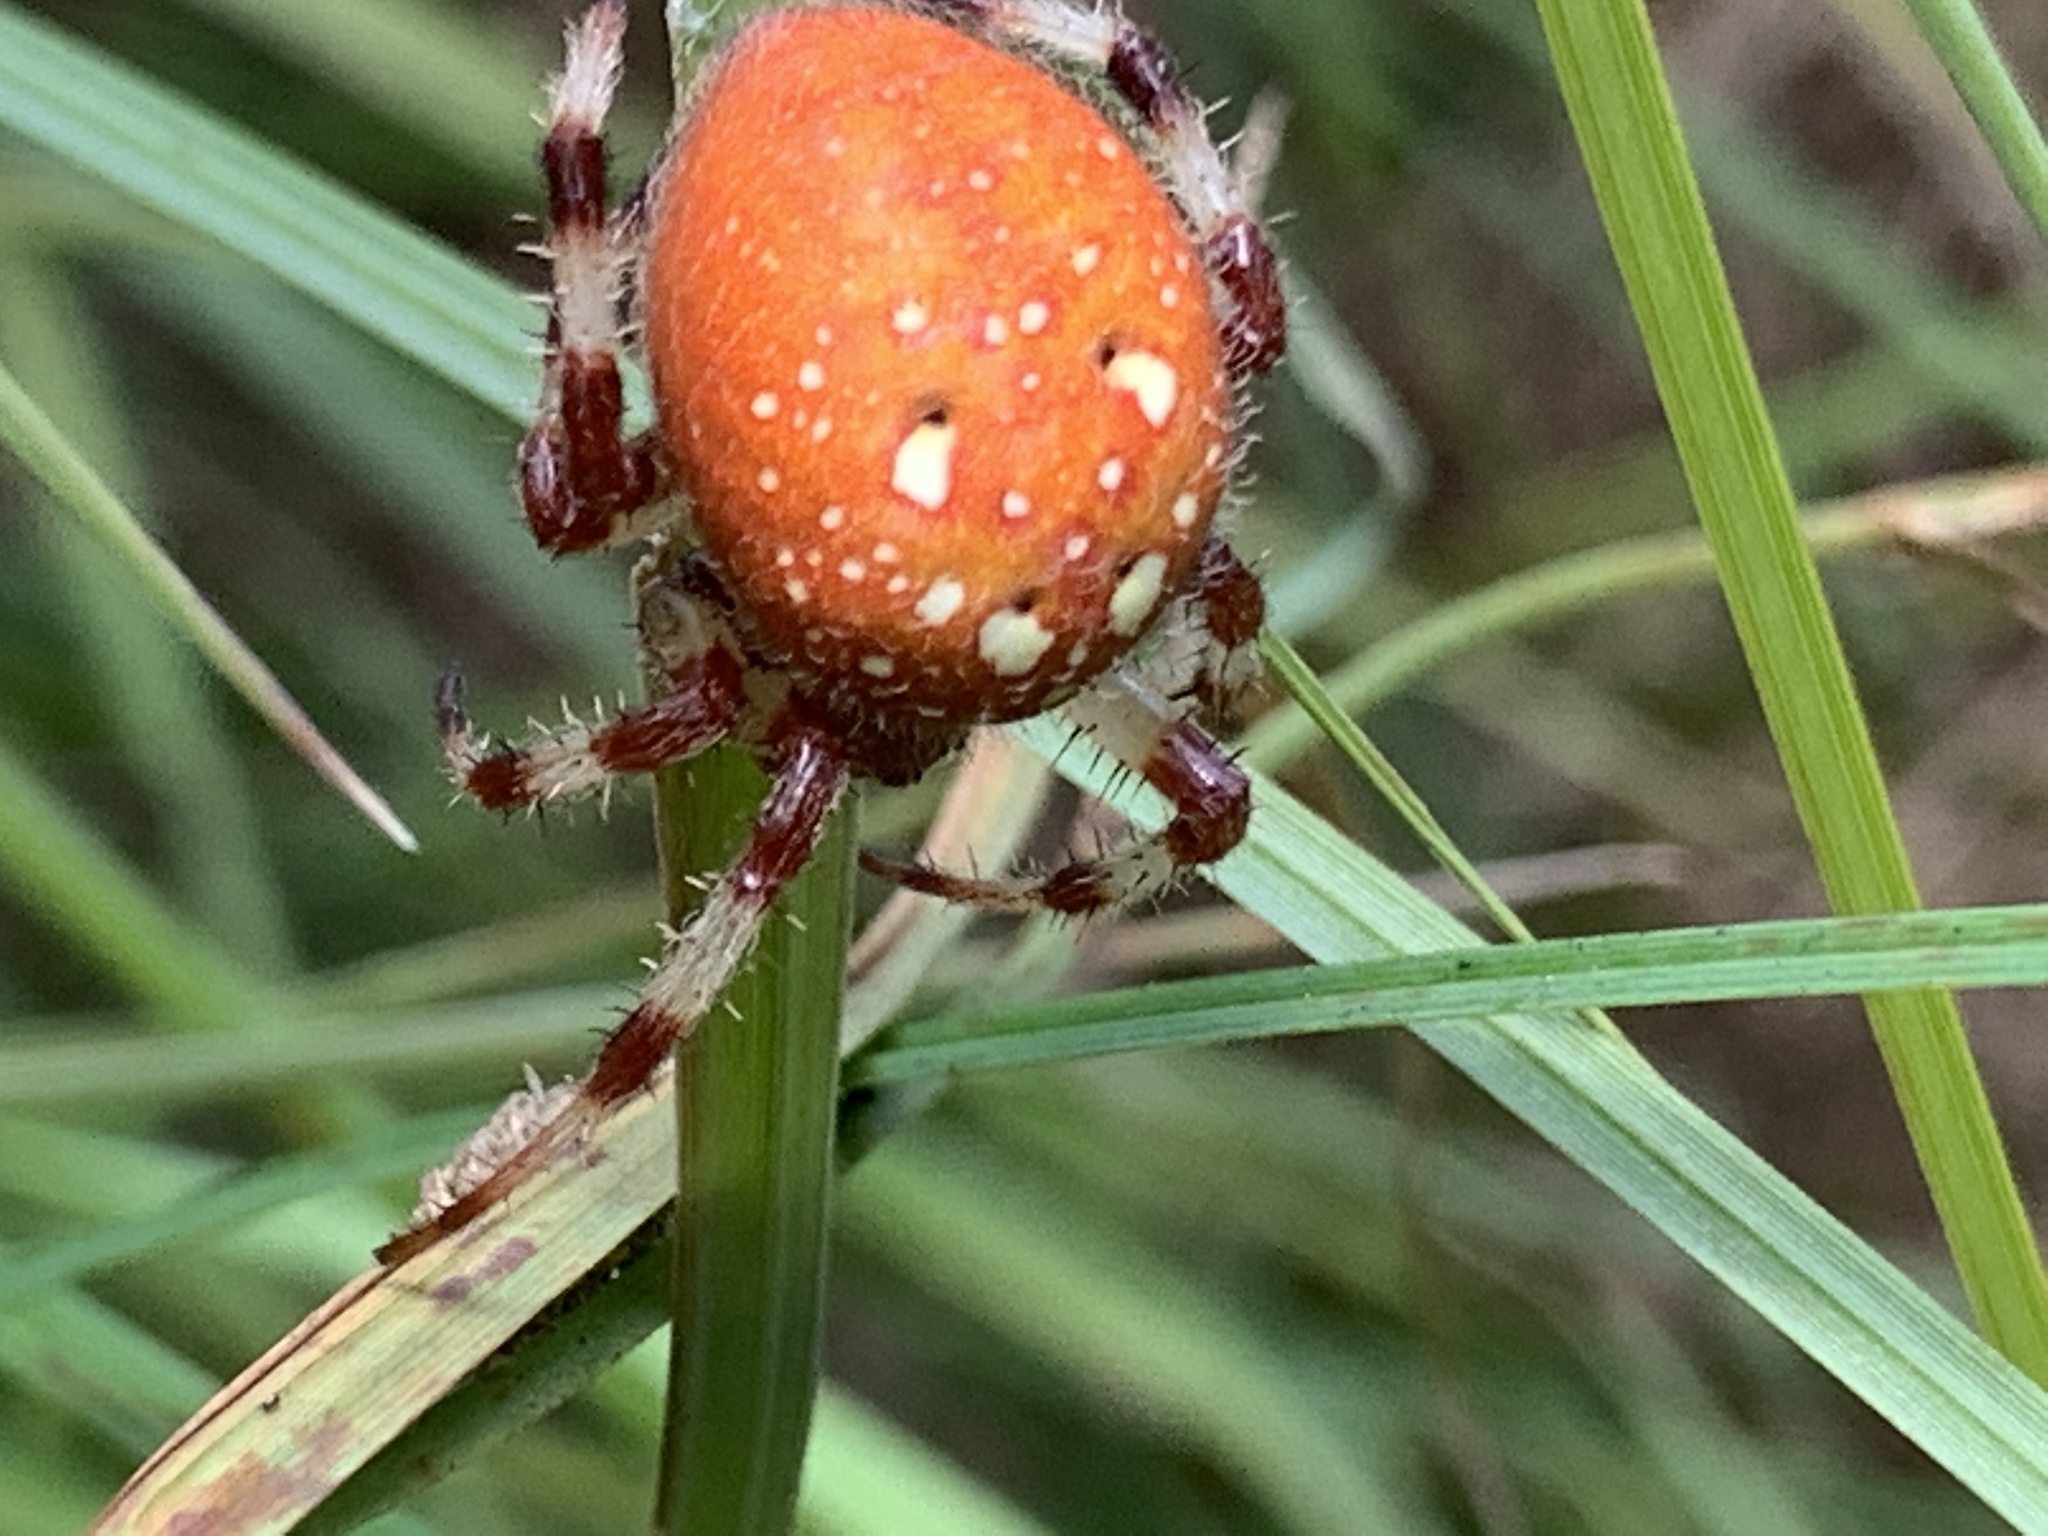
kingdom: Animalia
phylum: Arthropoda
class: Arachnida
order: Araneae
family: Araneidae
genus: Araneus
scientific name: Araneus trifolium
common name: Shamrock orbweaver
